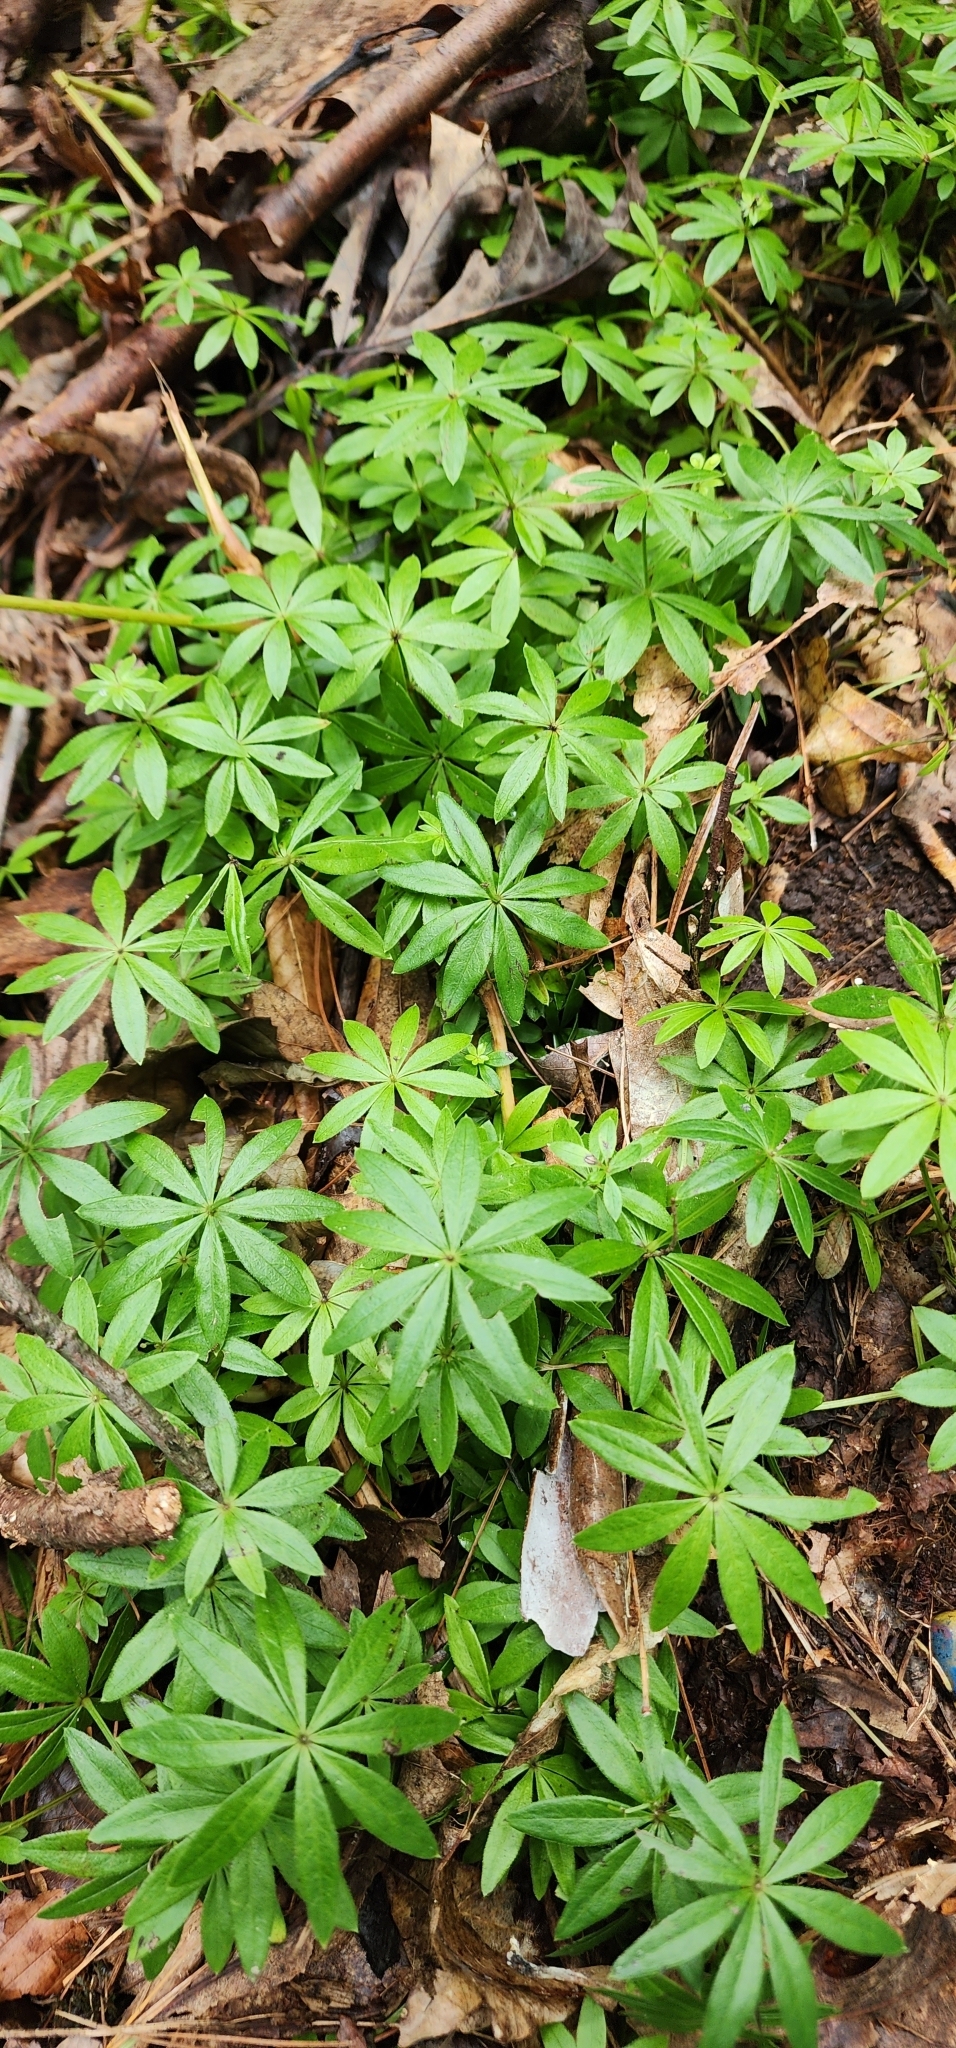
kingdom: Plantae
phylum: Tracheophyta
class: Magnoliopsida
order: Gentianales
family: Rubiaceae
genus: Galium
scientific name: Galium odoratum
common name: Sweet woodruff
